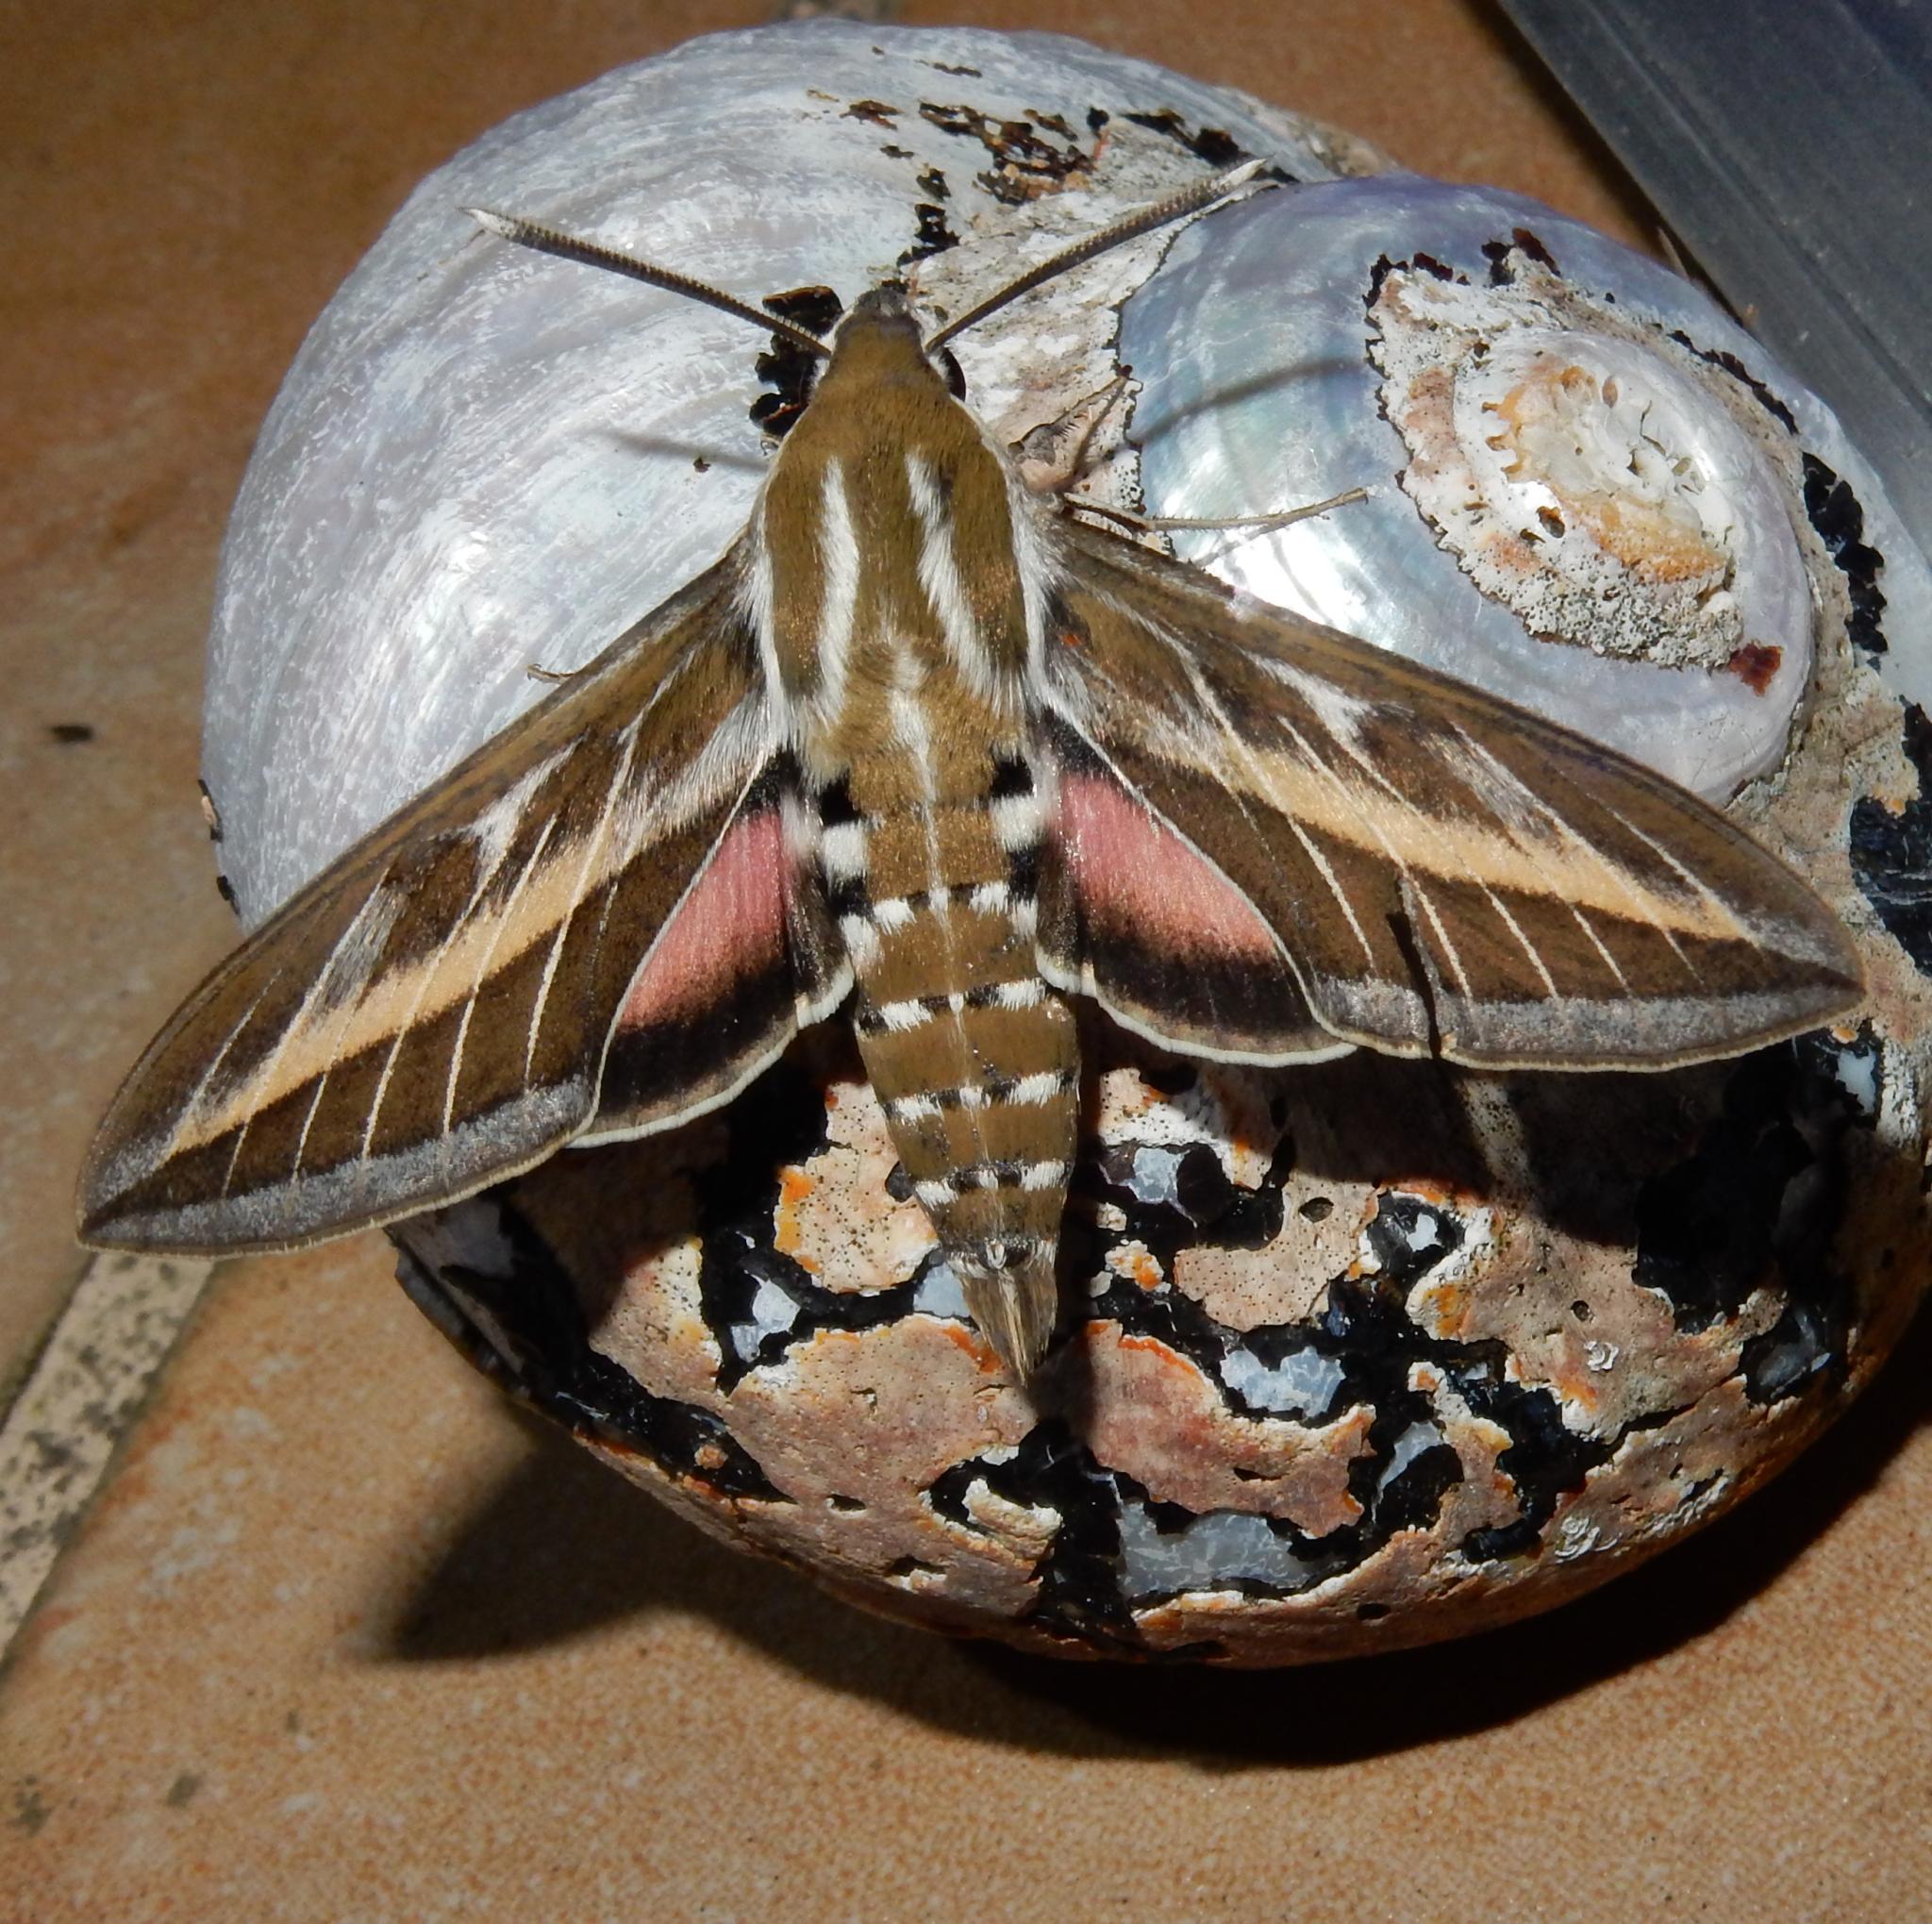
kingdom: Animalia
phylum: Arthropoda
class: Insecta
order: Lepidoptera
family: Sphingidae
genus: Hyles
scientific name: Hyles livornica
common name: Striped hawk-moth
